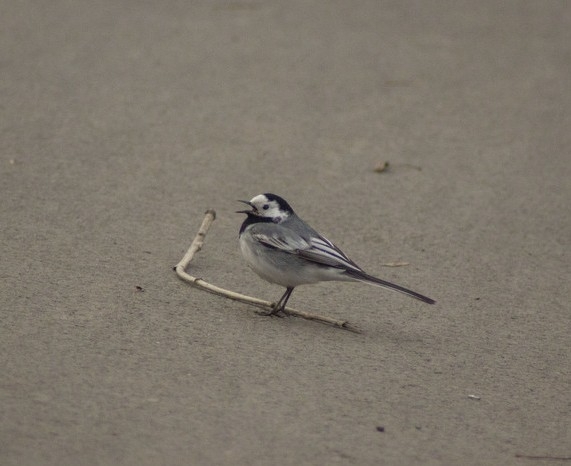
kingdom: Animalia
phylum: Chordata
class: Aves
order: Passeriformes
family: Motacillidae
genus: Motacilla
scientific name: Motacilla alba
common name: White wagtail
